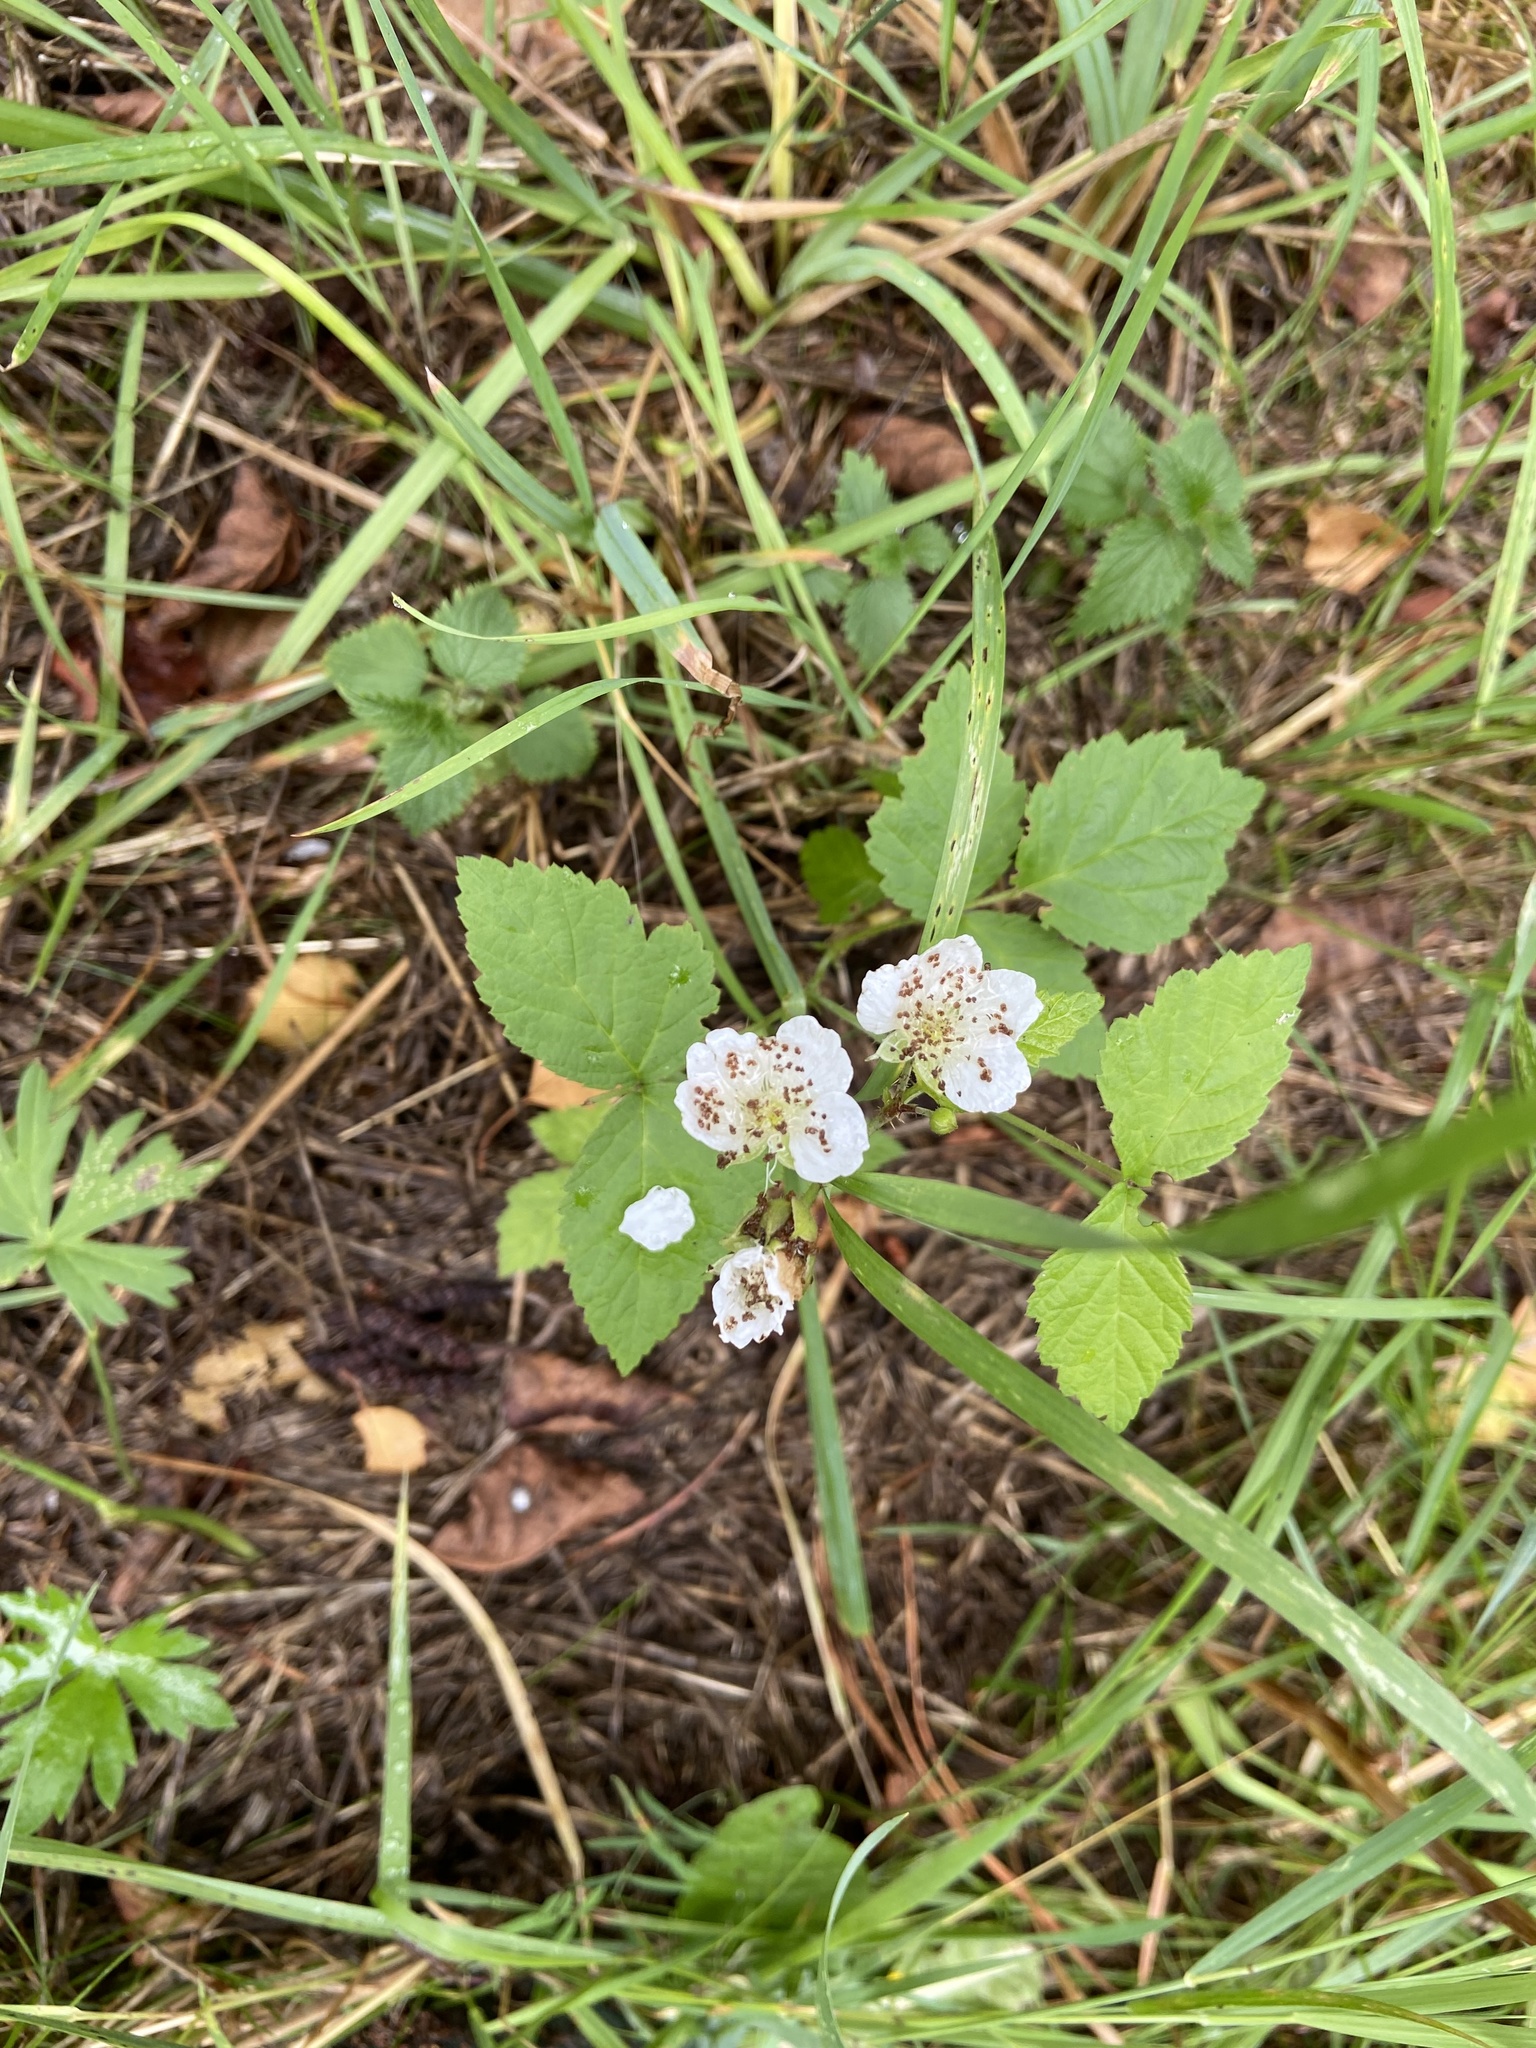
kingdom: Plantae
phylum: Tracheophyta
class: Magnoliopsida
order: Rosales
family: Rosaceae
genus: Rubus
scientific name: Rubus caesius
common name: Dewberry
